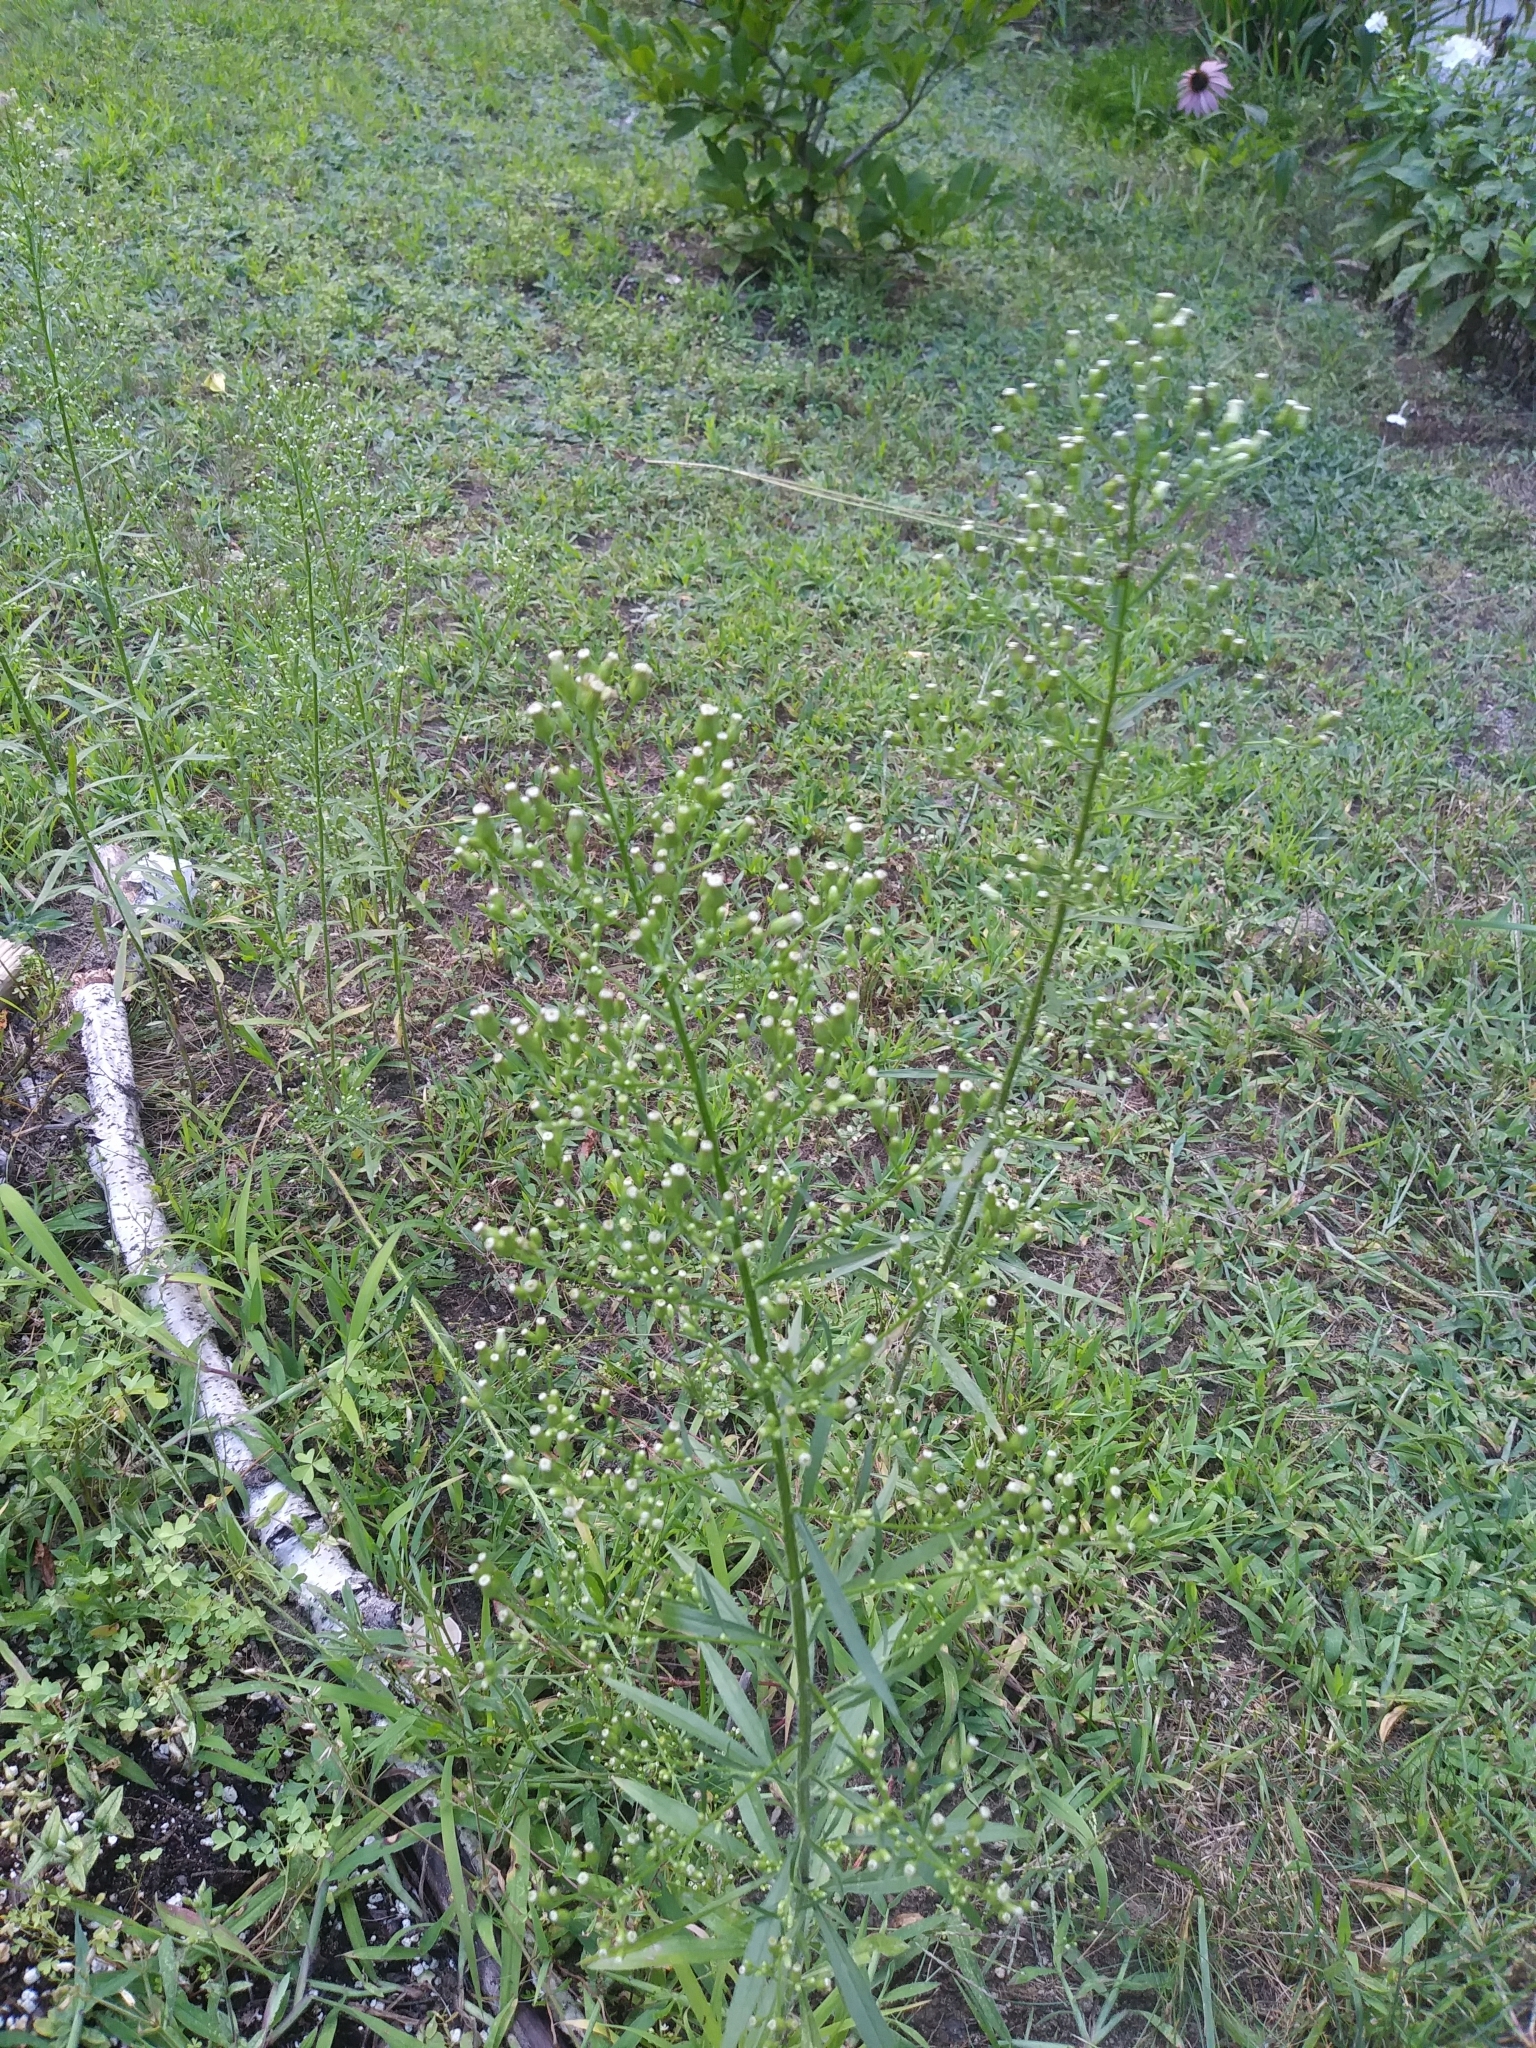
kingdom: Plantae
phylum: Tracheophyta
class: Magnoliopsida
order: Asterales
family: Asteraceae
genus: Erigeron
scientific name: Erigeron canadensis
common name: Canadian fleabane
